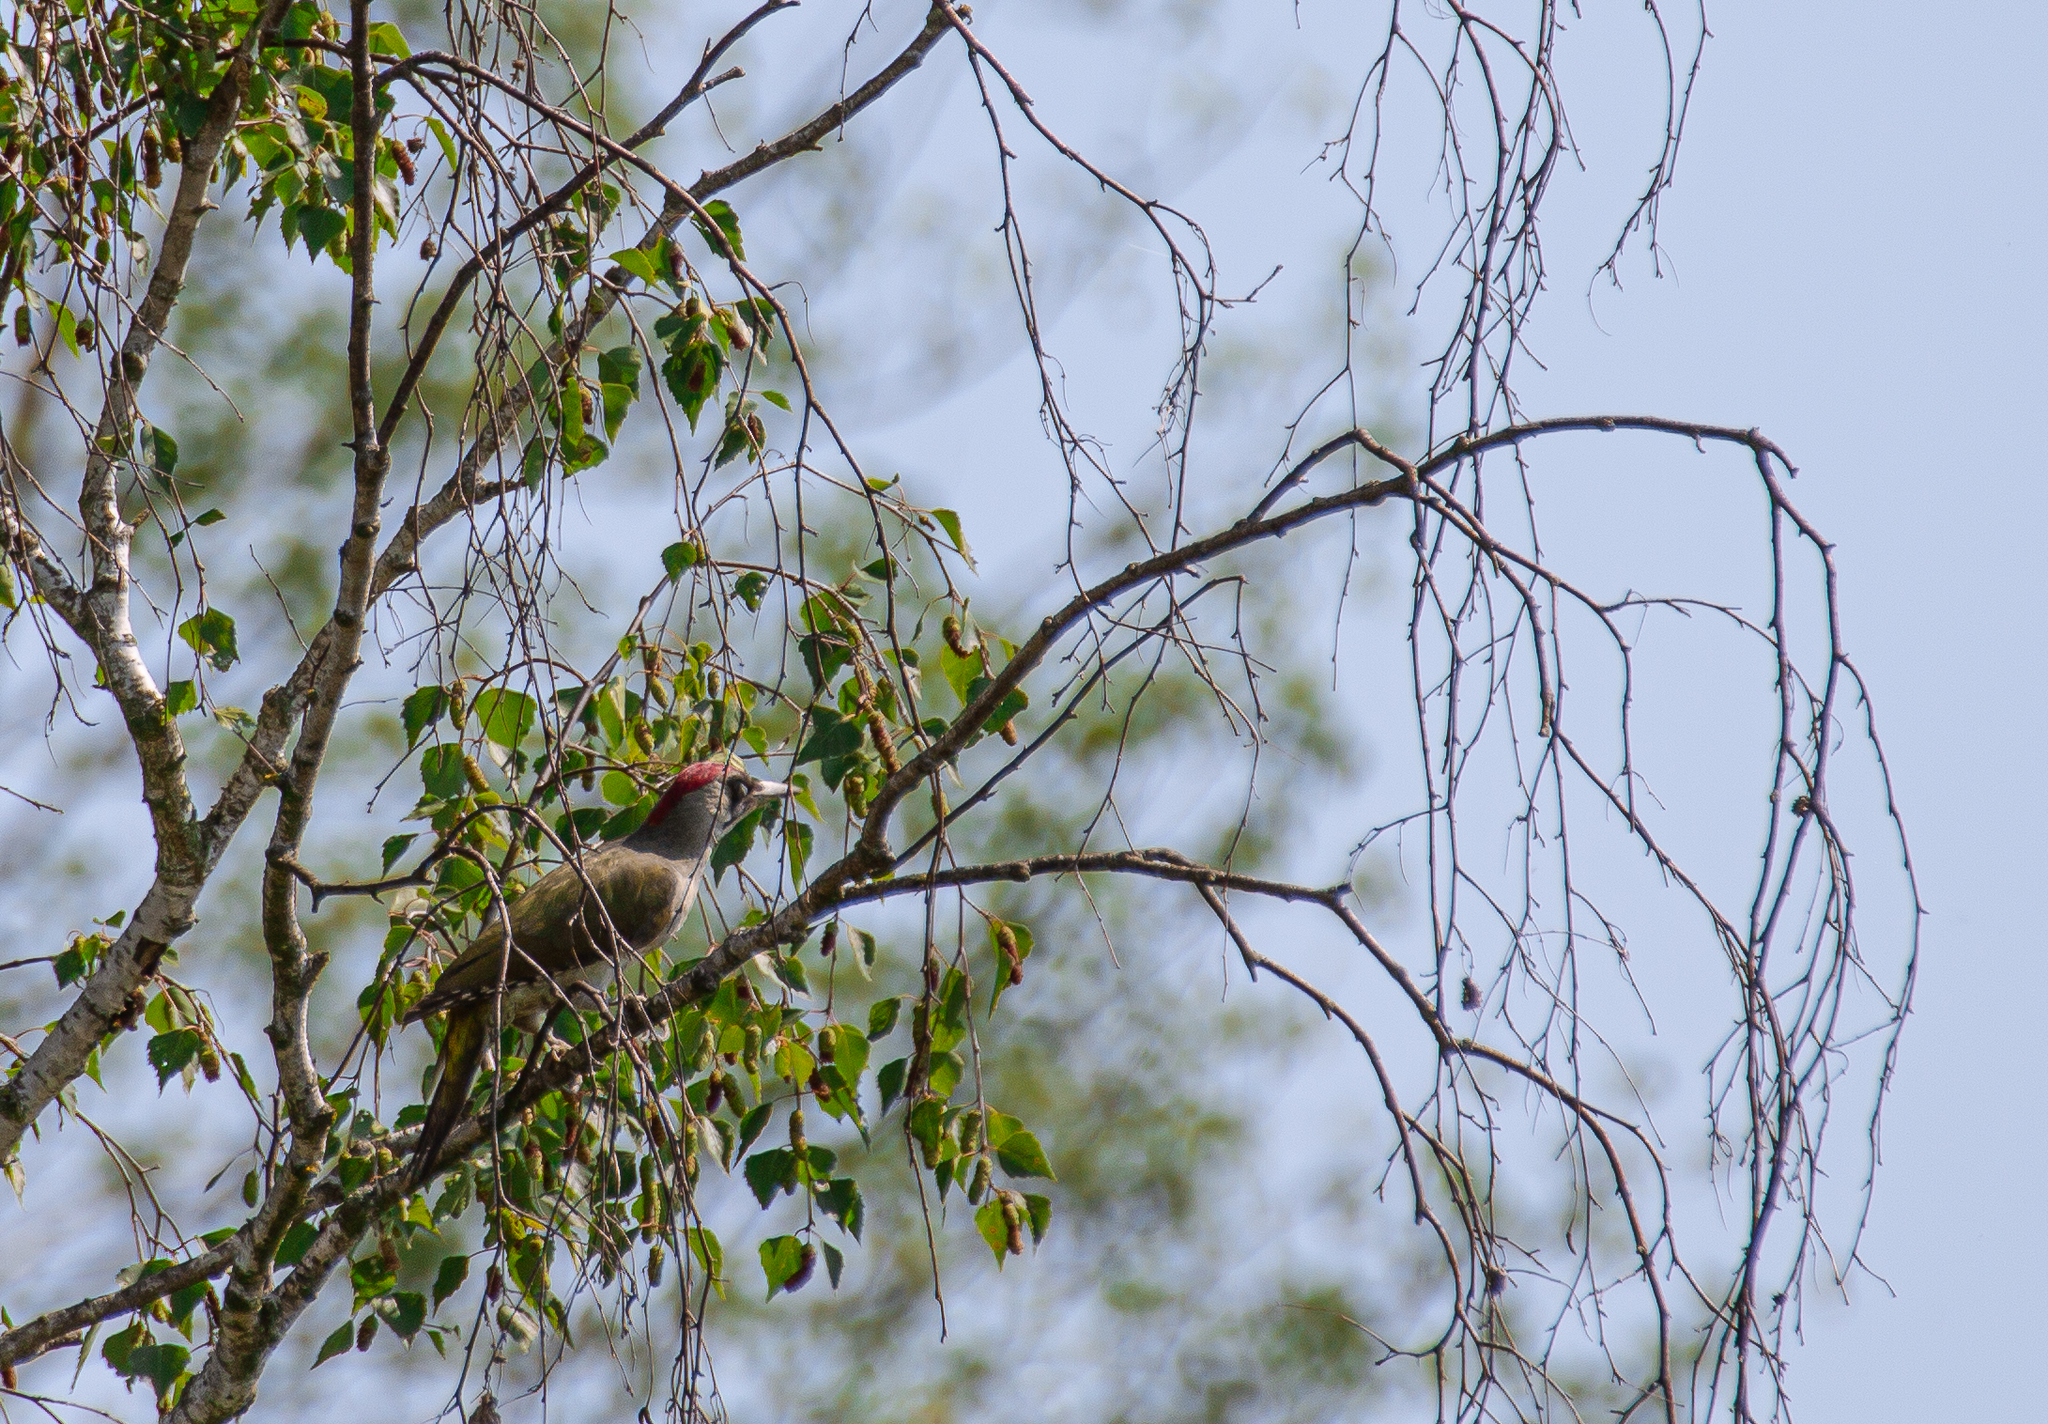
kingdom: Animalia
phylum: Chordata
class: Aves
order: Piciformes
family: Picidae
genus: Picus
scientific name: Picus viridis
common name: European green woodpecker
